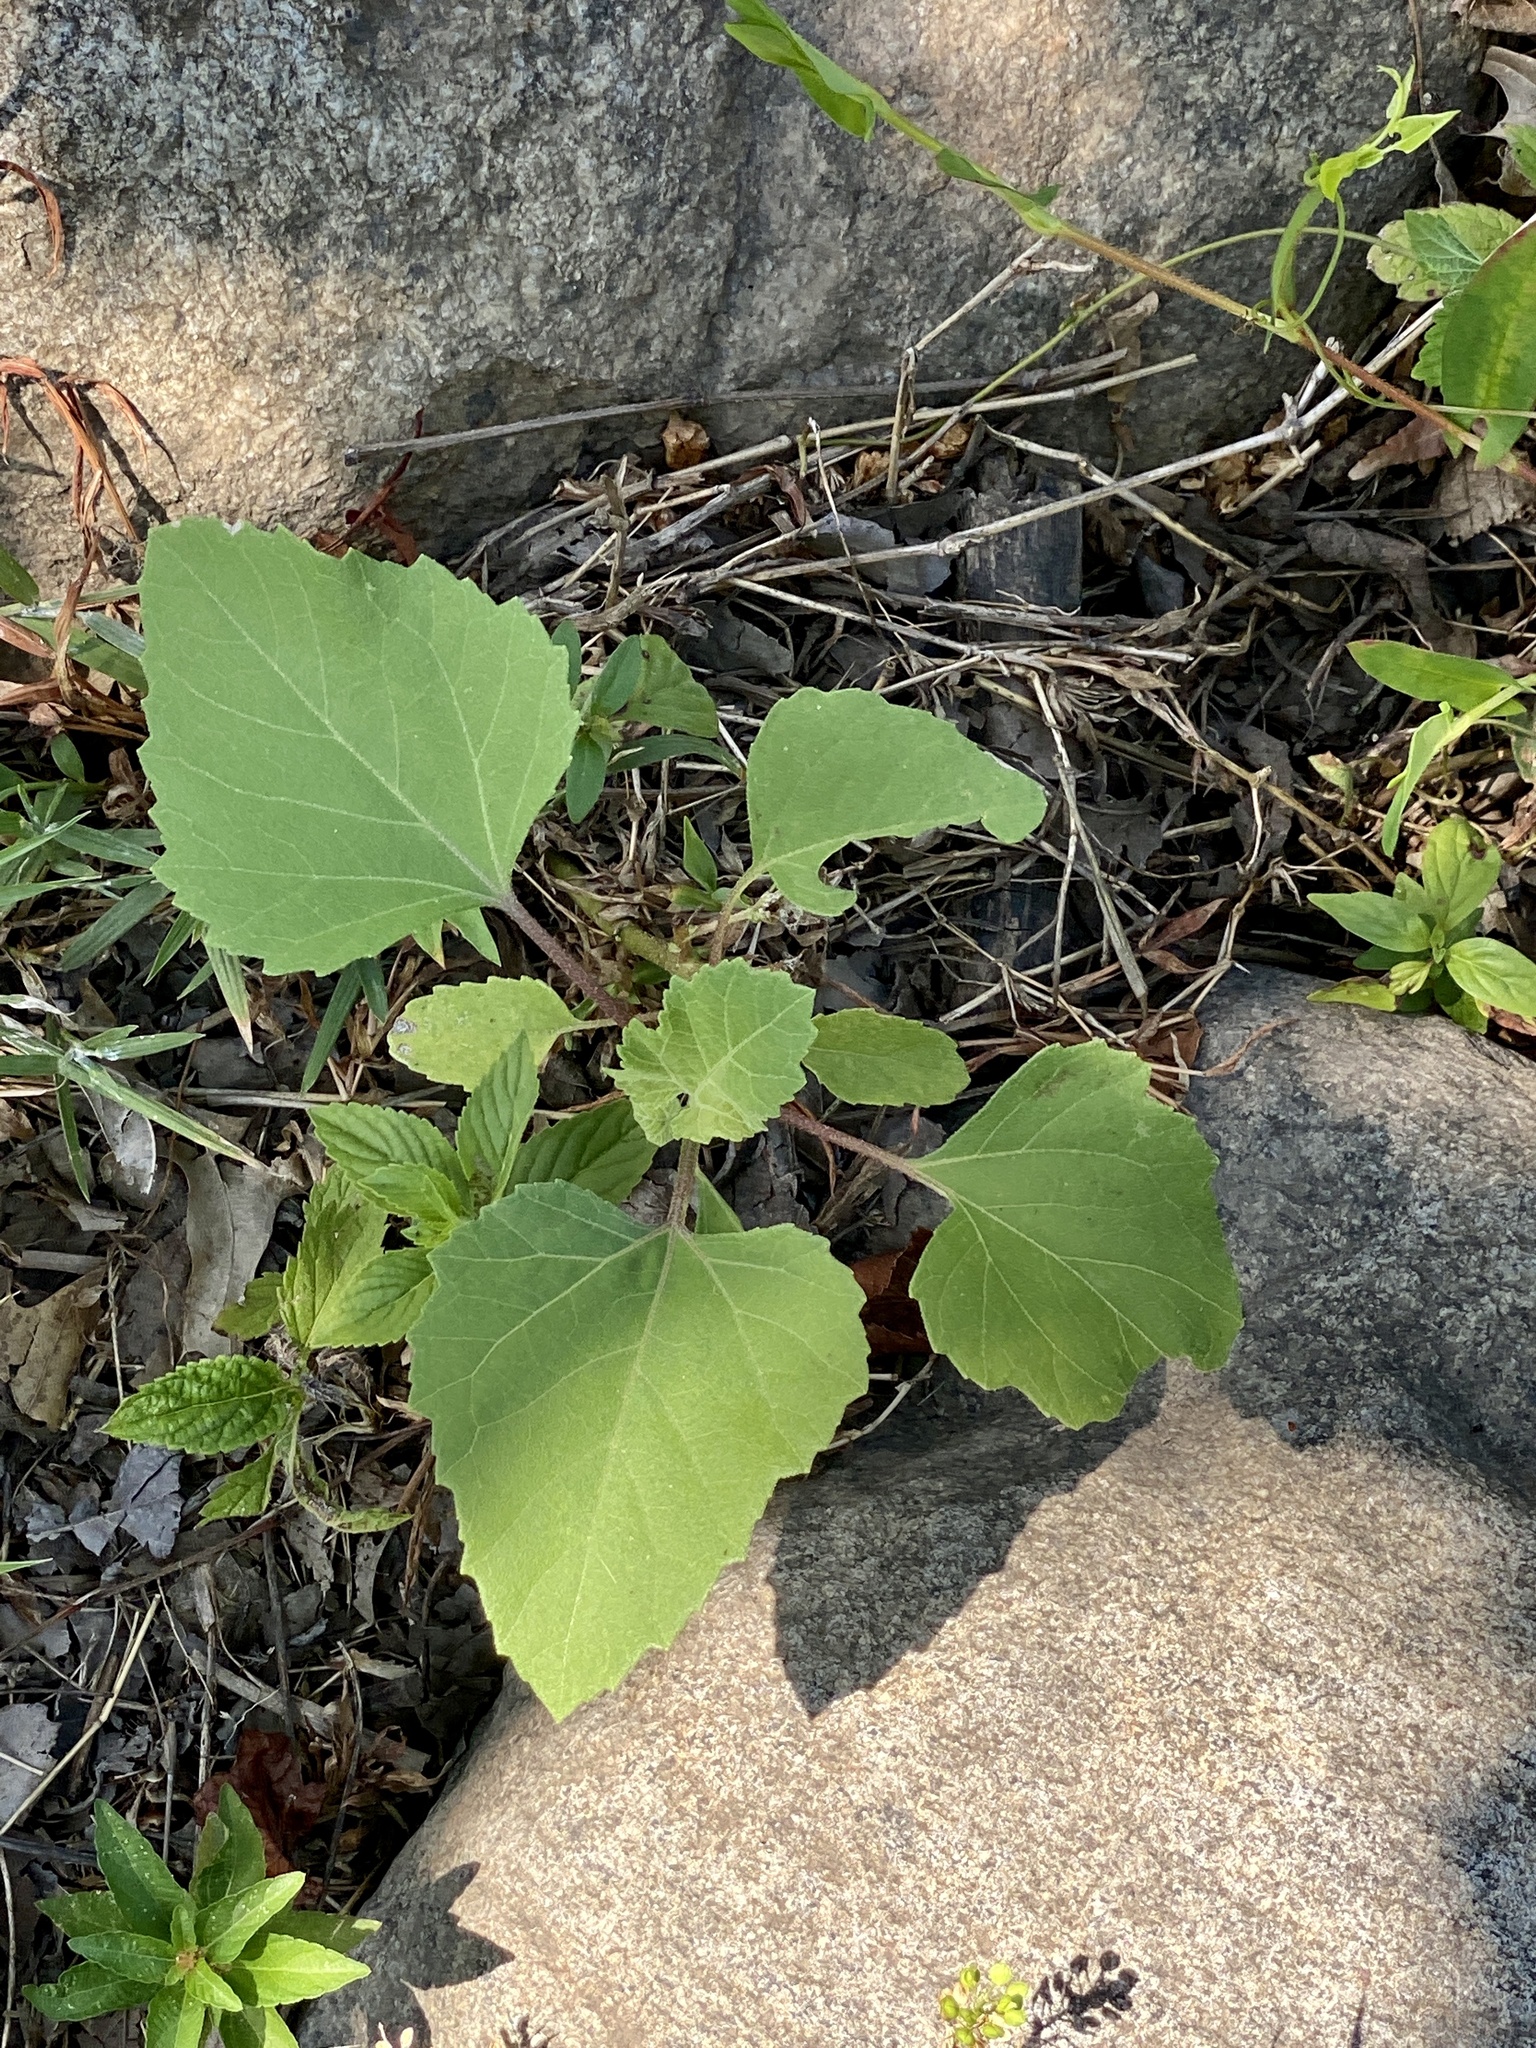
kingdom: Plantae
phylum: Tracheophyta
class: Magnoliopsida
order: Asterales
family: Asteraceae
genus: Xanthium
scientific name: Xanthium strumarium
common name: Rough cocklebur
